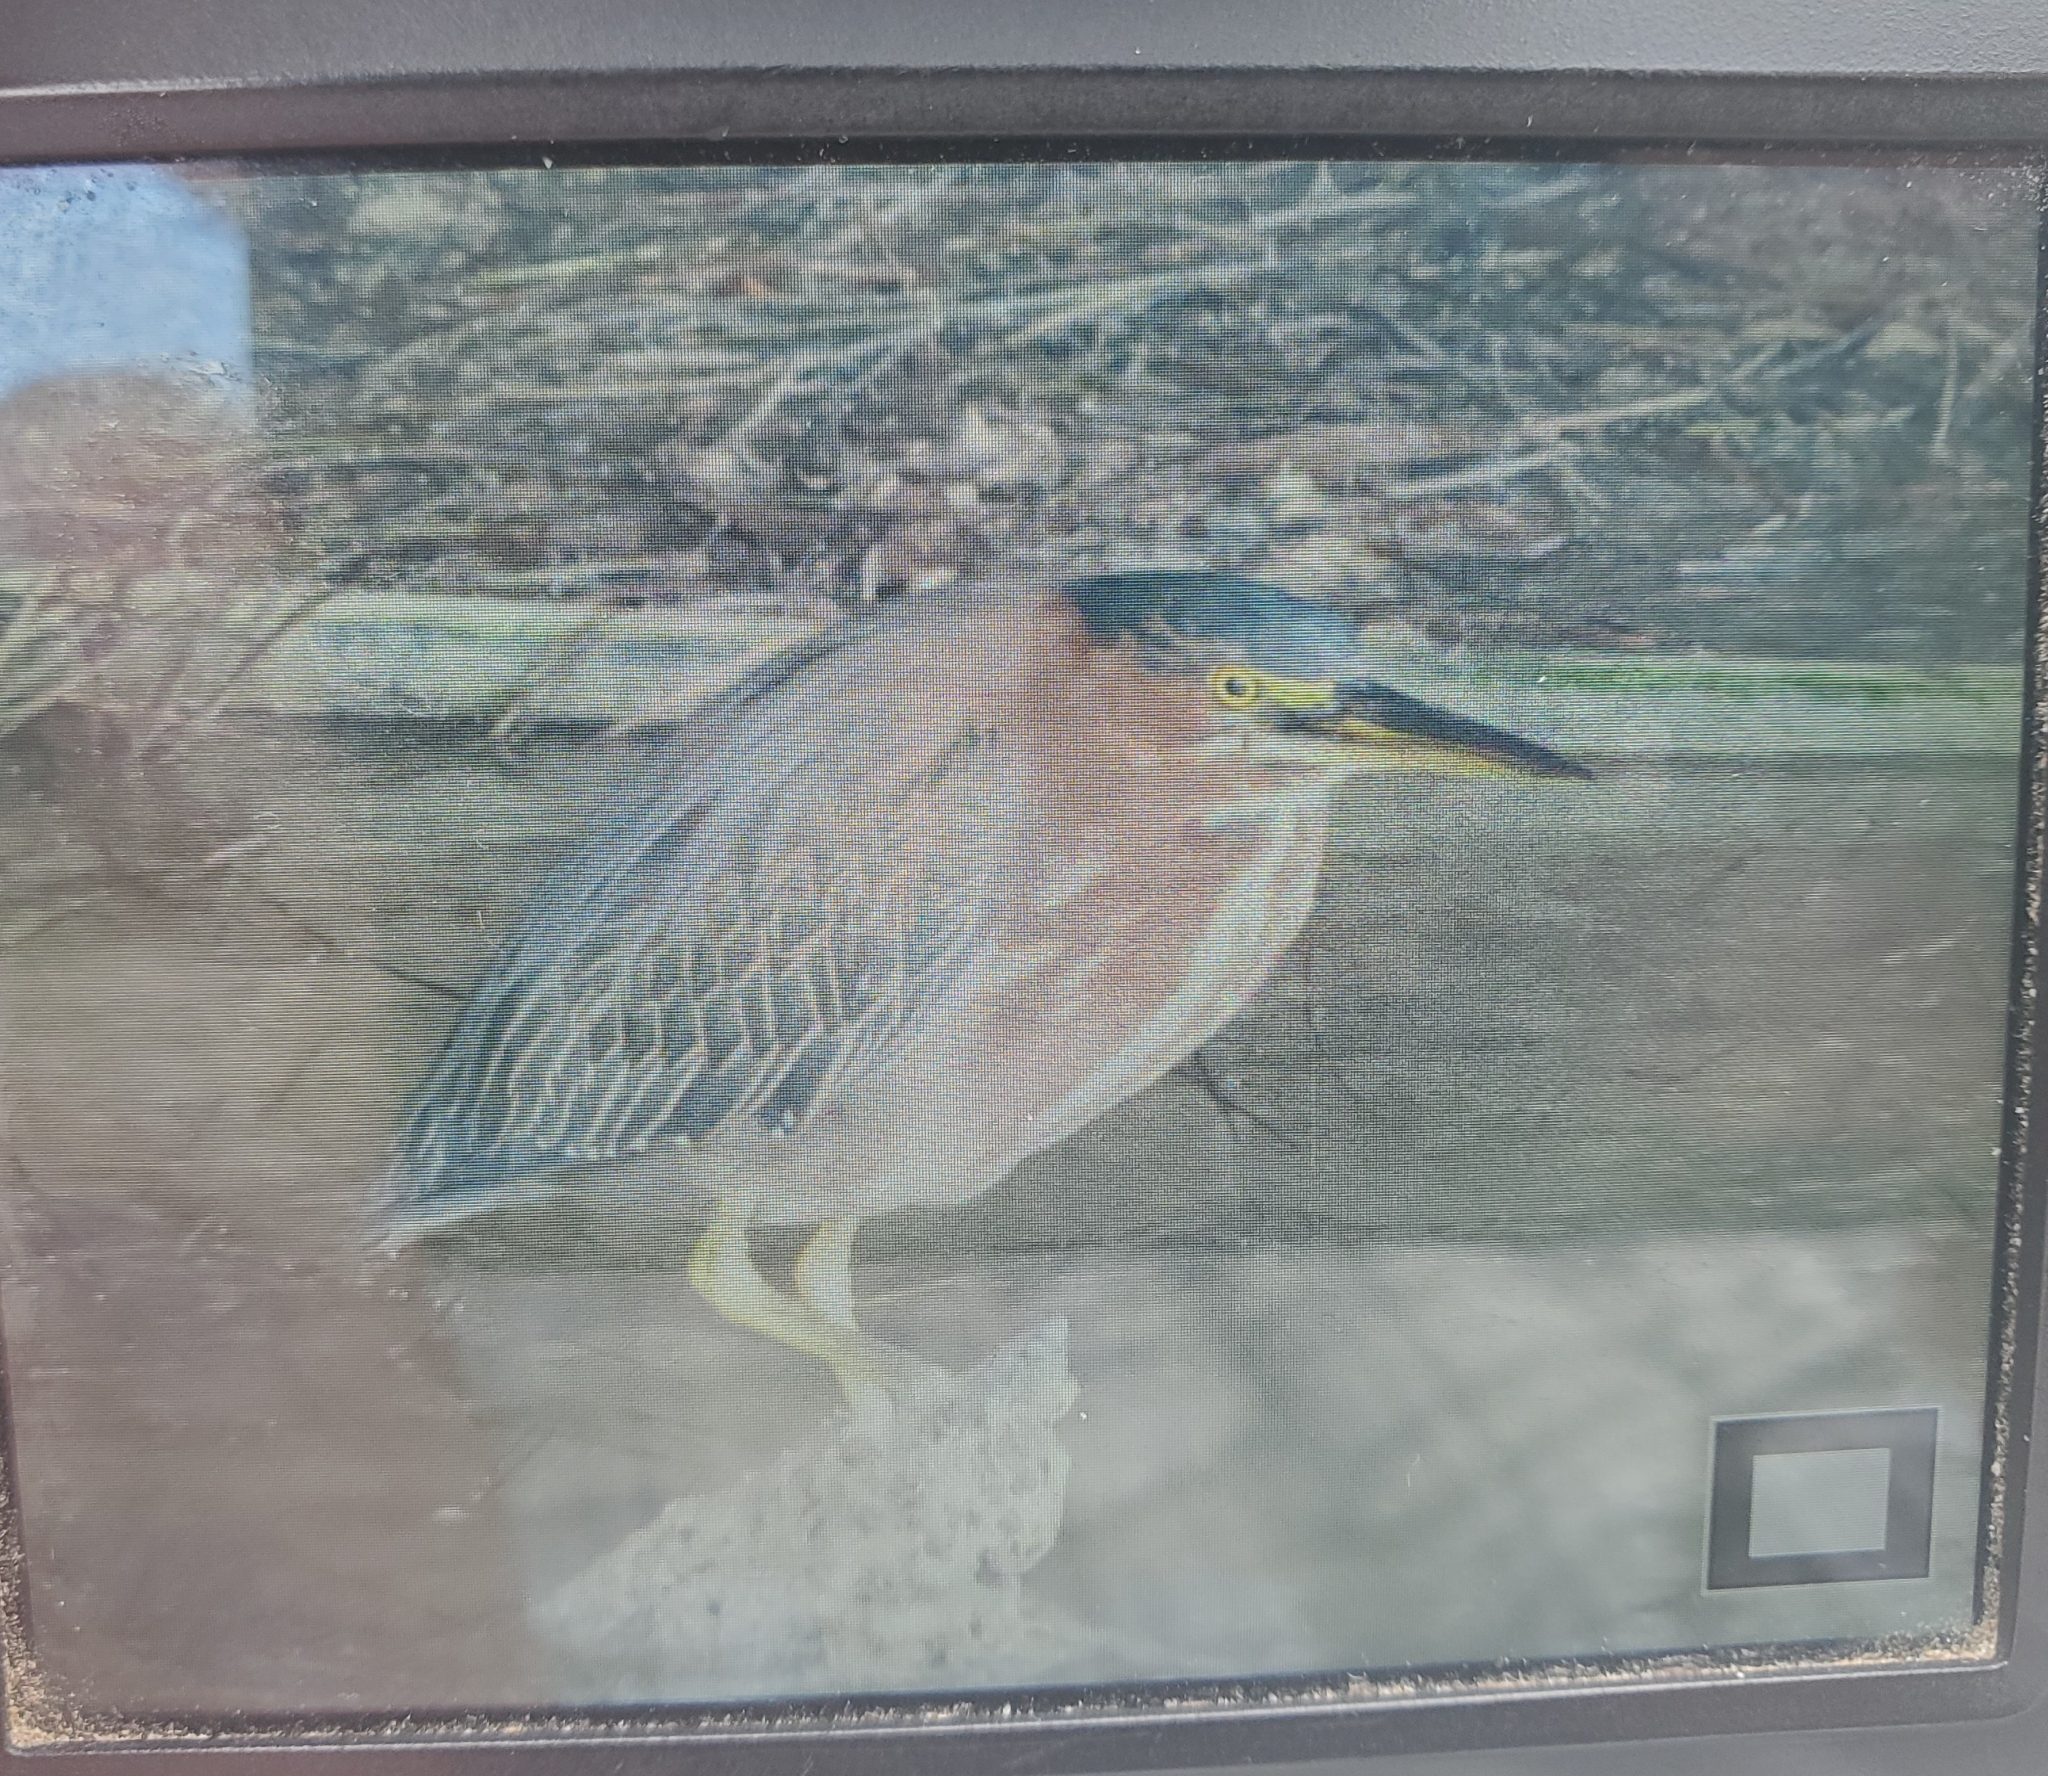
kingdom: Animalia
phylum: Chordata
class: Aves
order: Pelecaniformes
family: Ardeidae
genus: Butorides
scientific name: Butorides virescens
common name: Green heron
